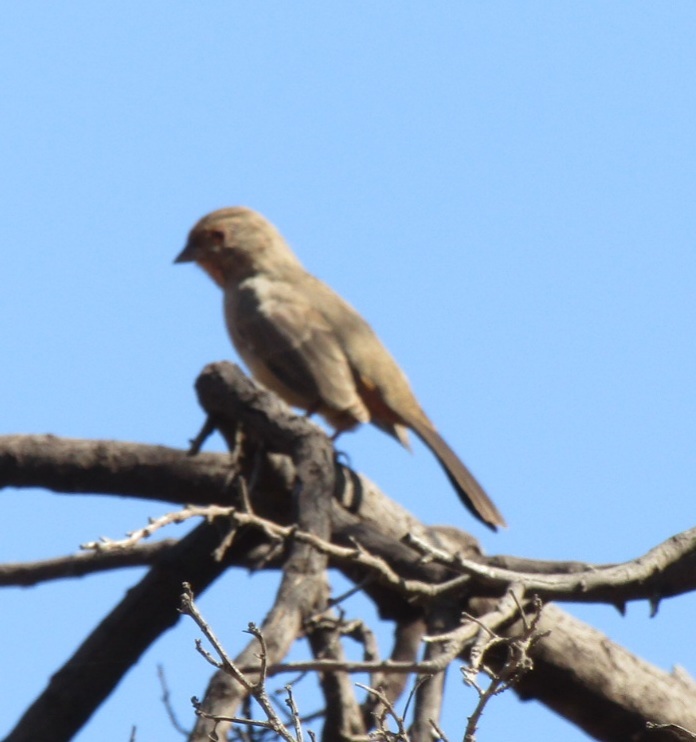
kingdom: Animalia
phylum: Chordata
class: Aves
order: Passeriformes
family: Passerellidae
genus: Melozone
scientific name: Melozone crissalis
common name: California towhee
